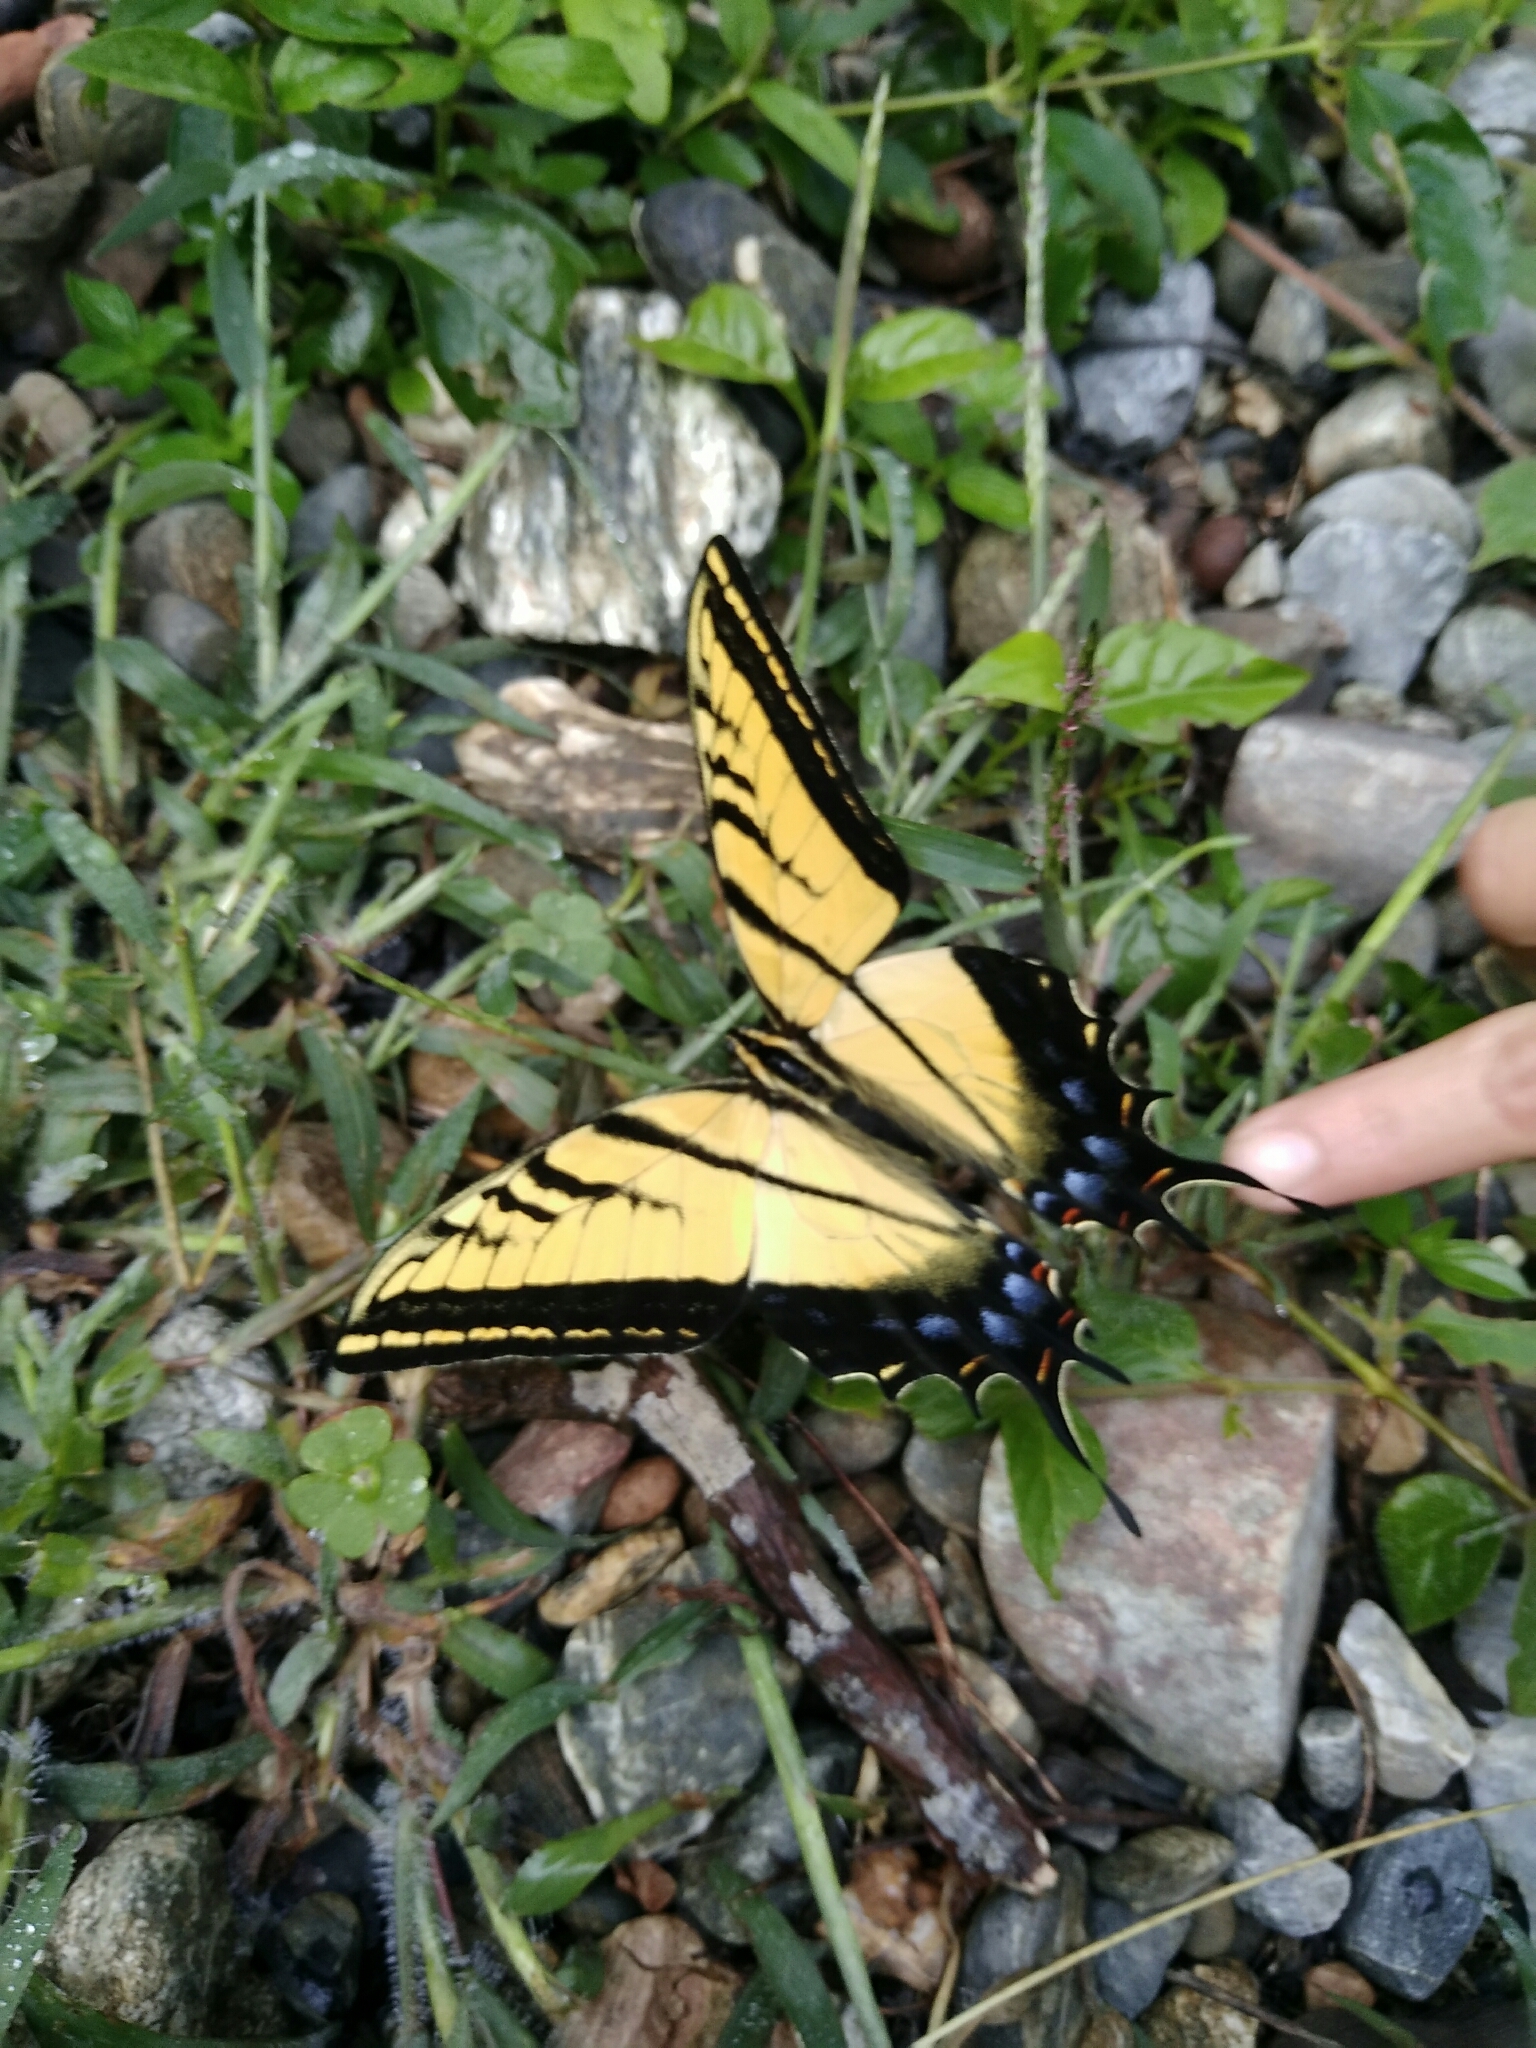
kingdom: Animalia
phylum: Arthropoda
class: Insecta
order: Lepidoptera
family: Papilionidae
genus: Papilio
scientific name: Papilio multicaudata
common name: Two-tailed tiger swallowtail
